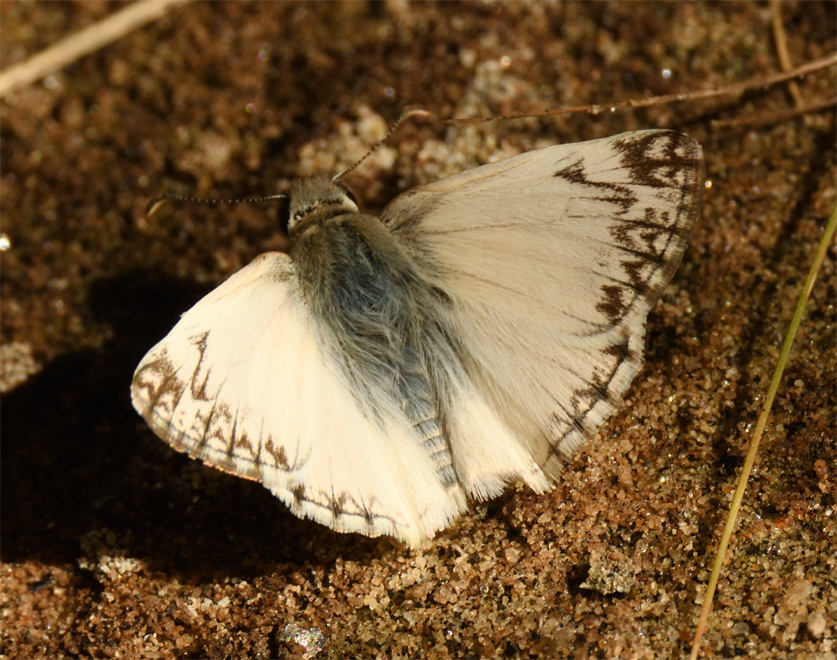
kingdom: Animalia
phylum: Arthropoda
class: Insecta
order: Lepidoptera
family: Hesperiidae
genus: Heliopetes
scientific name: Heliopetes ericetorum
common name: Northern white-skipper
